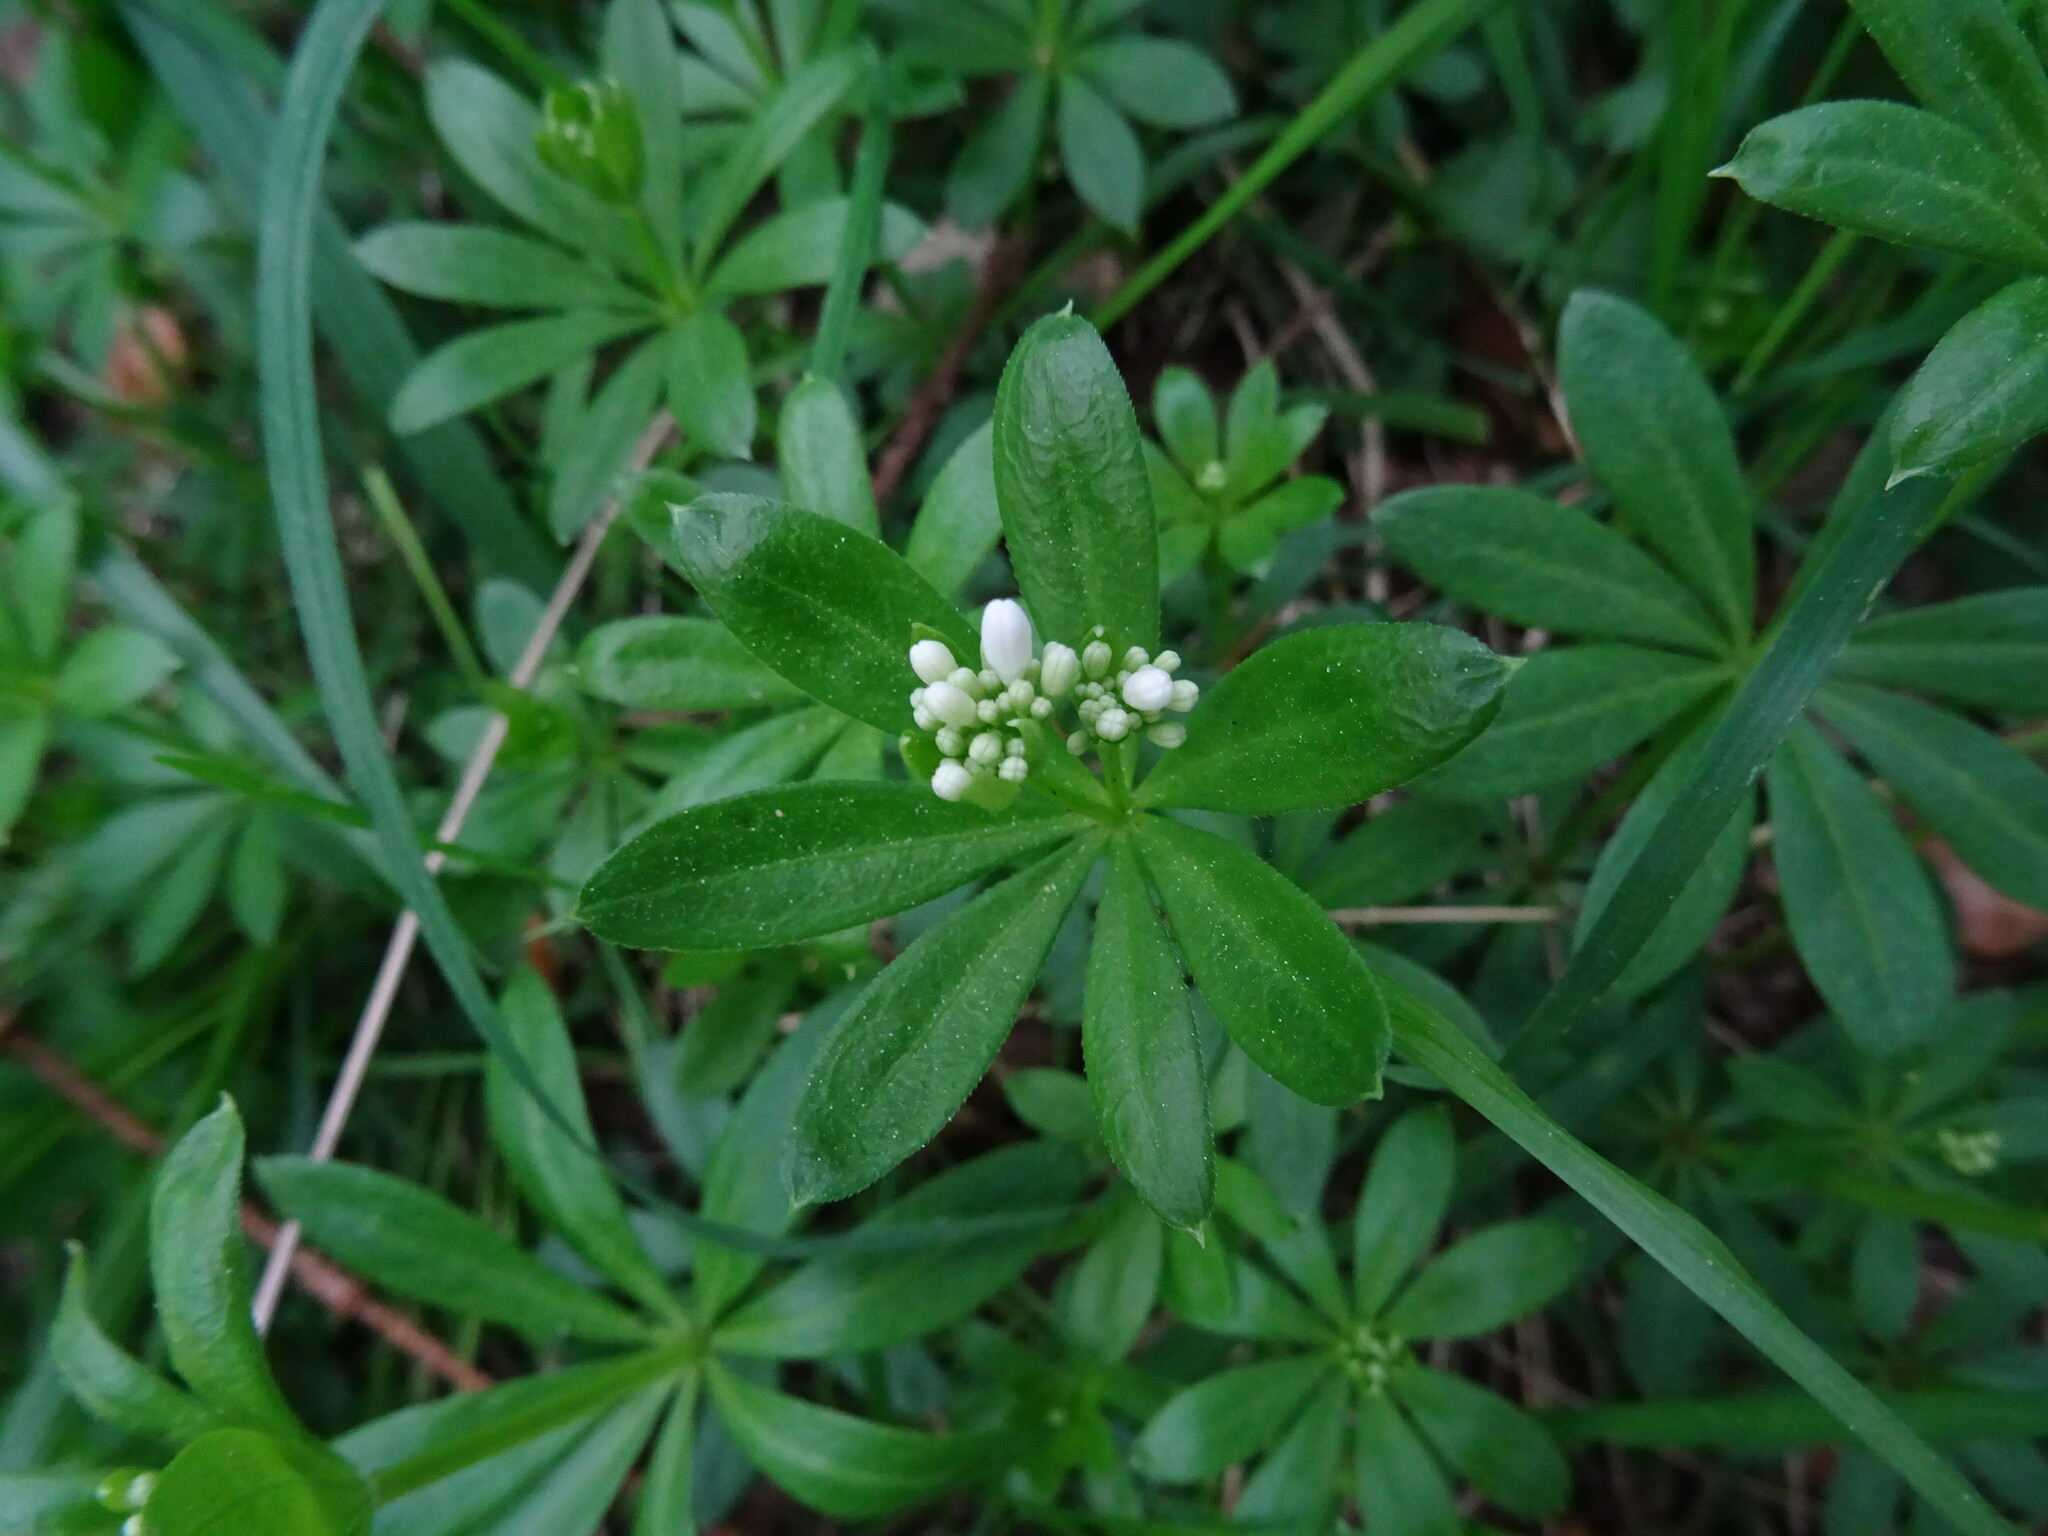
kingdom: Plantae
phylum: Tracheophyta
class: Magnoliopsida
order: Gentianales
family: Rubiaceae
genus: Galium
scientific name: Galium odoratum
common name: Sweet woodruff
